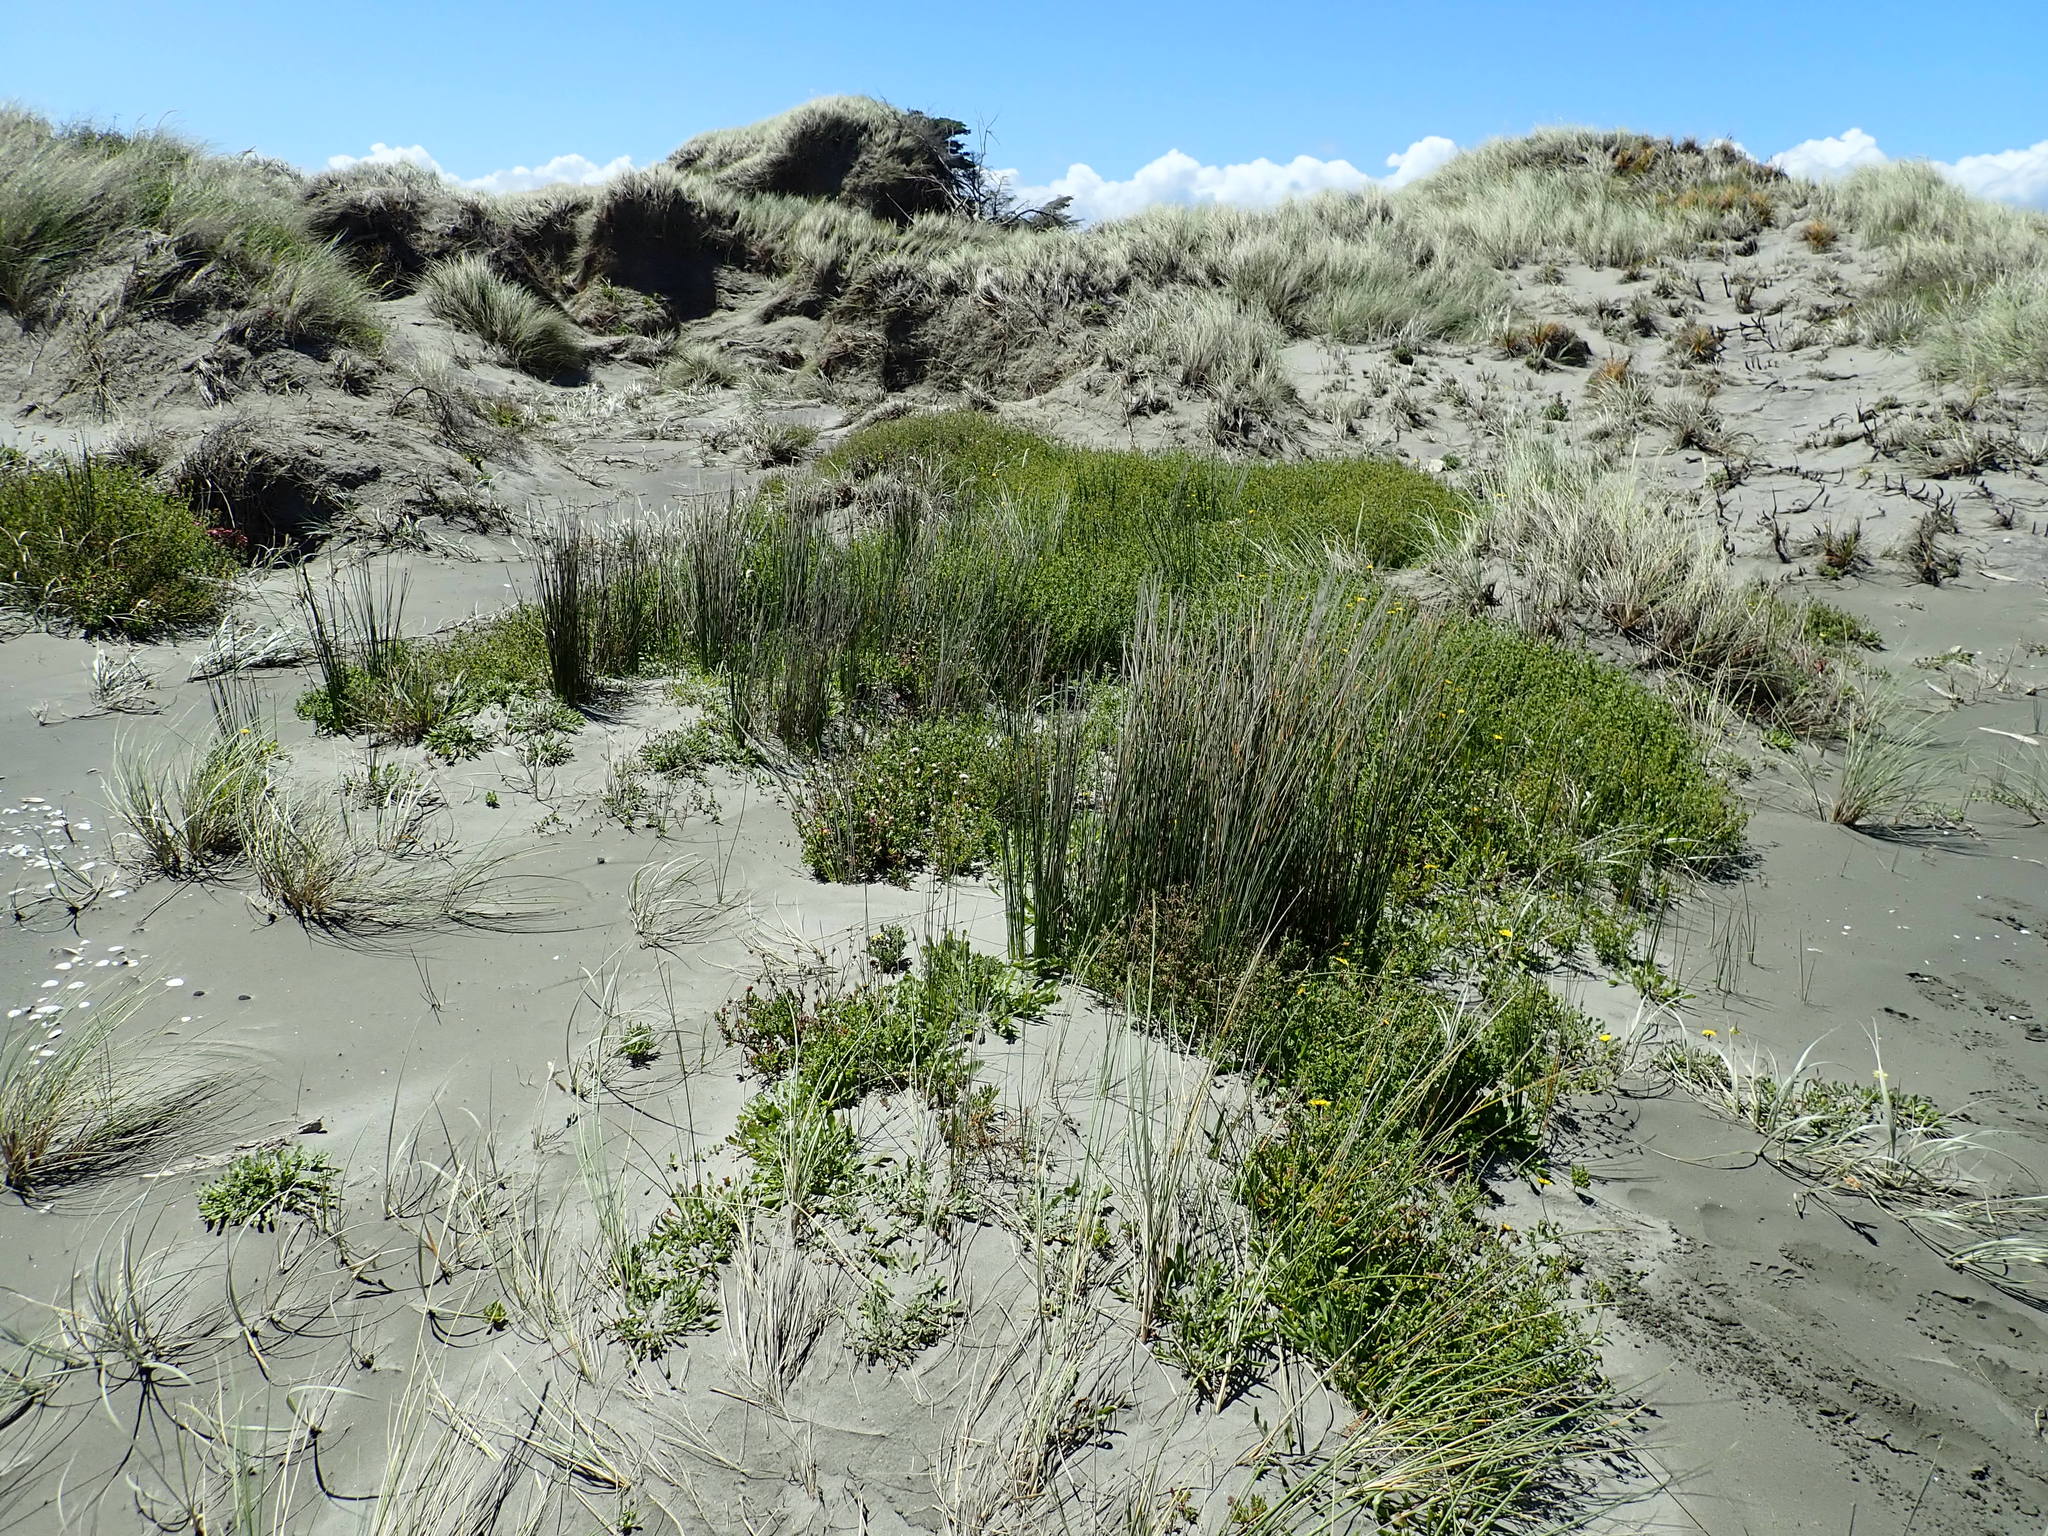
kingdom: Plantae
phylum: Tracheophyta
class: Liliopsida
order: Poales
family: Cyperaceae
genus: Ficinia
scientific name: Ficinia nodosa
